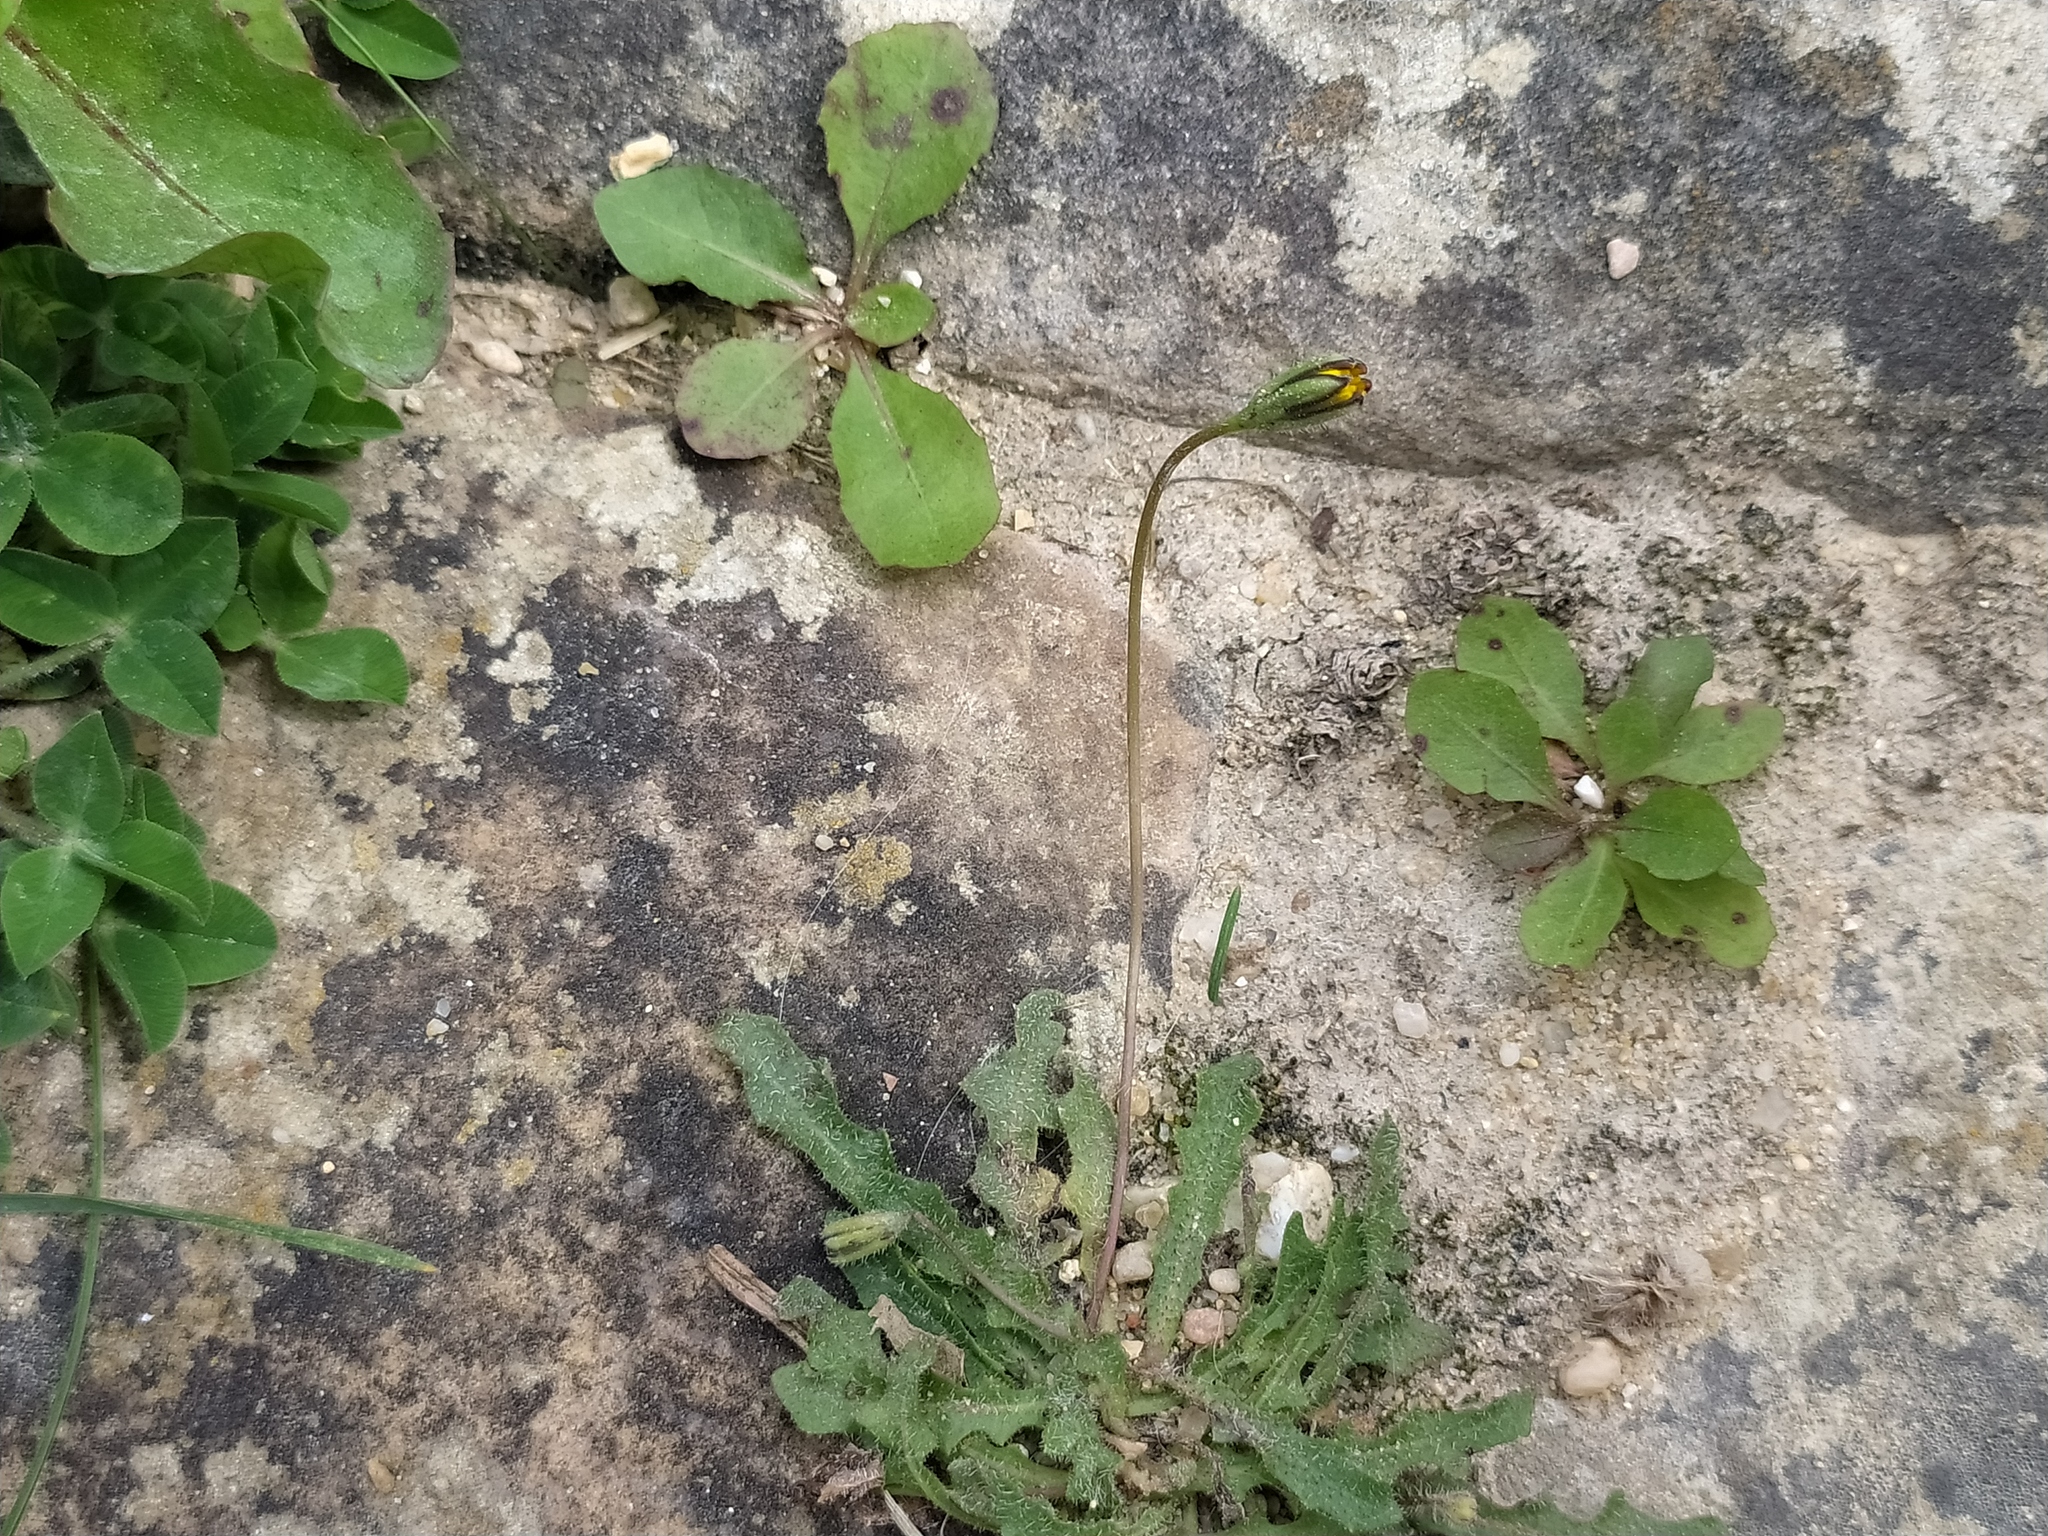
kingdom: Plantae
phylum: Tracheophyta
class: Magnoliopsida
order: Asterales
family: Asteraceae
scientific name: Asteraceae
